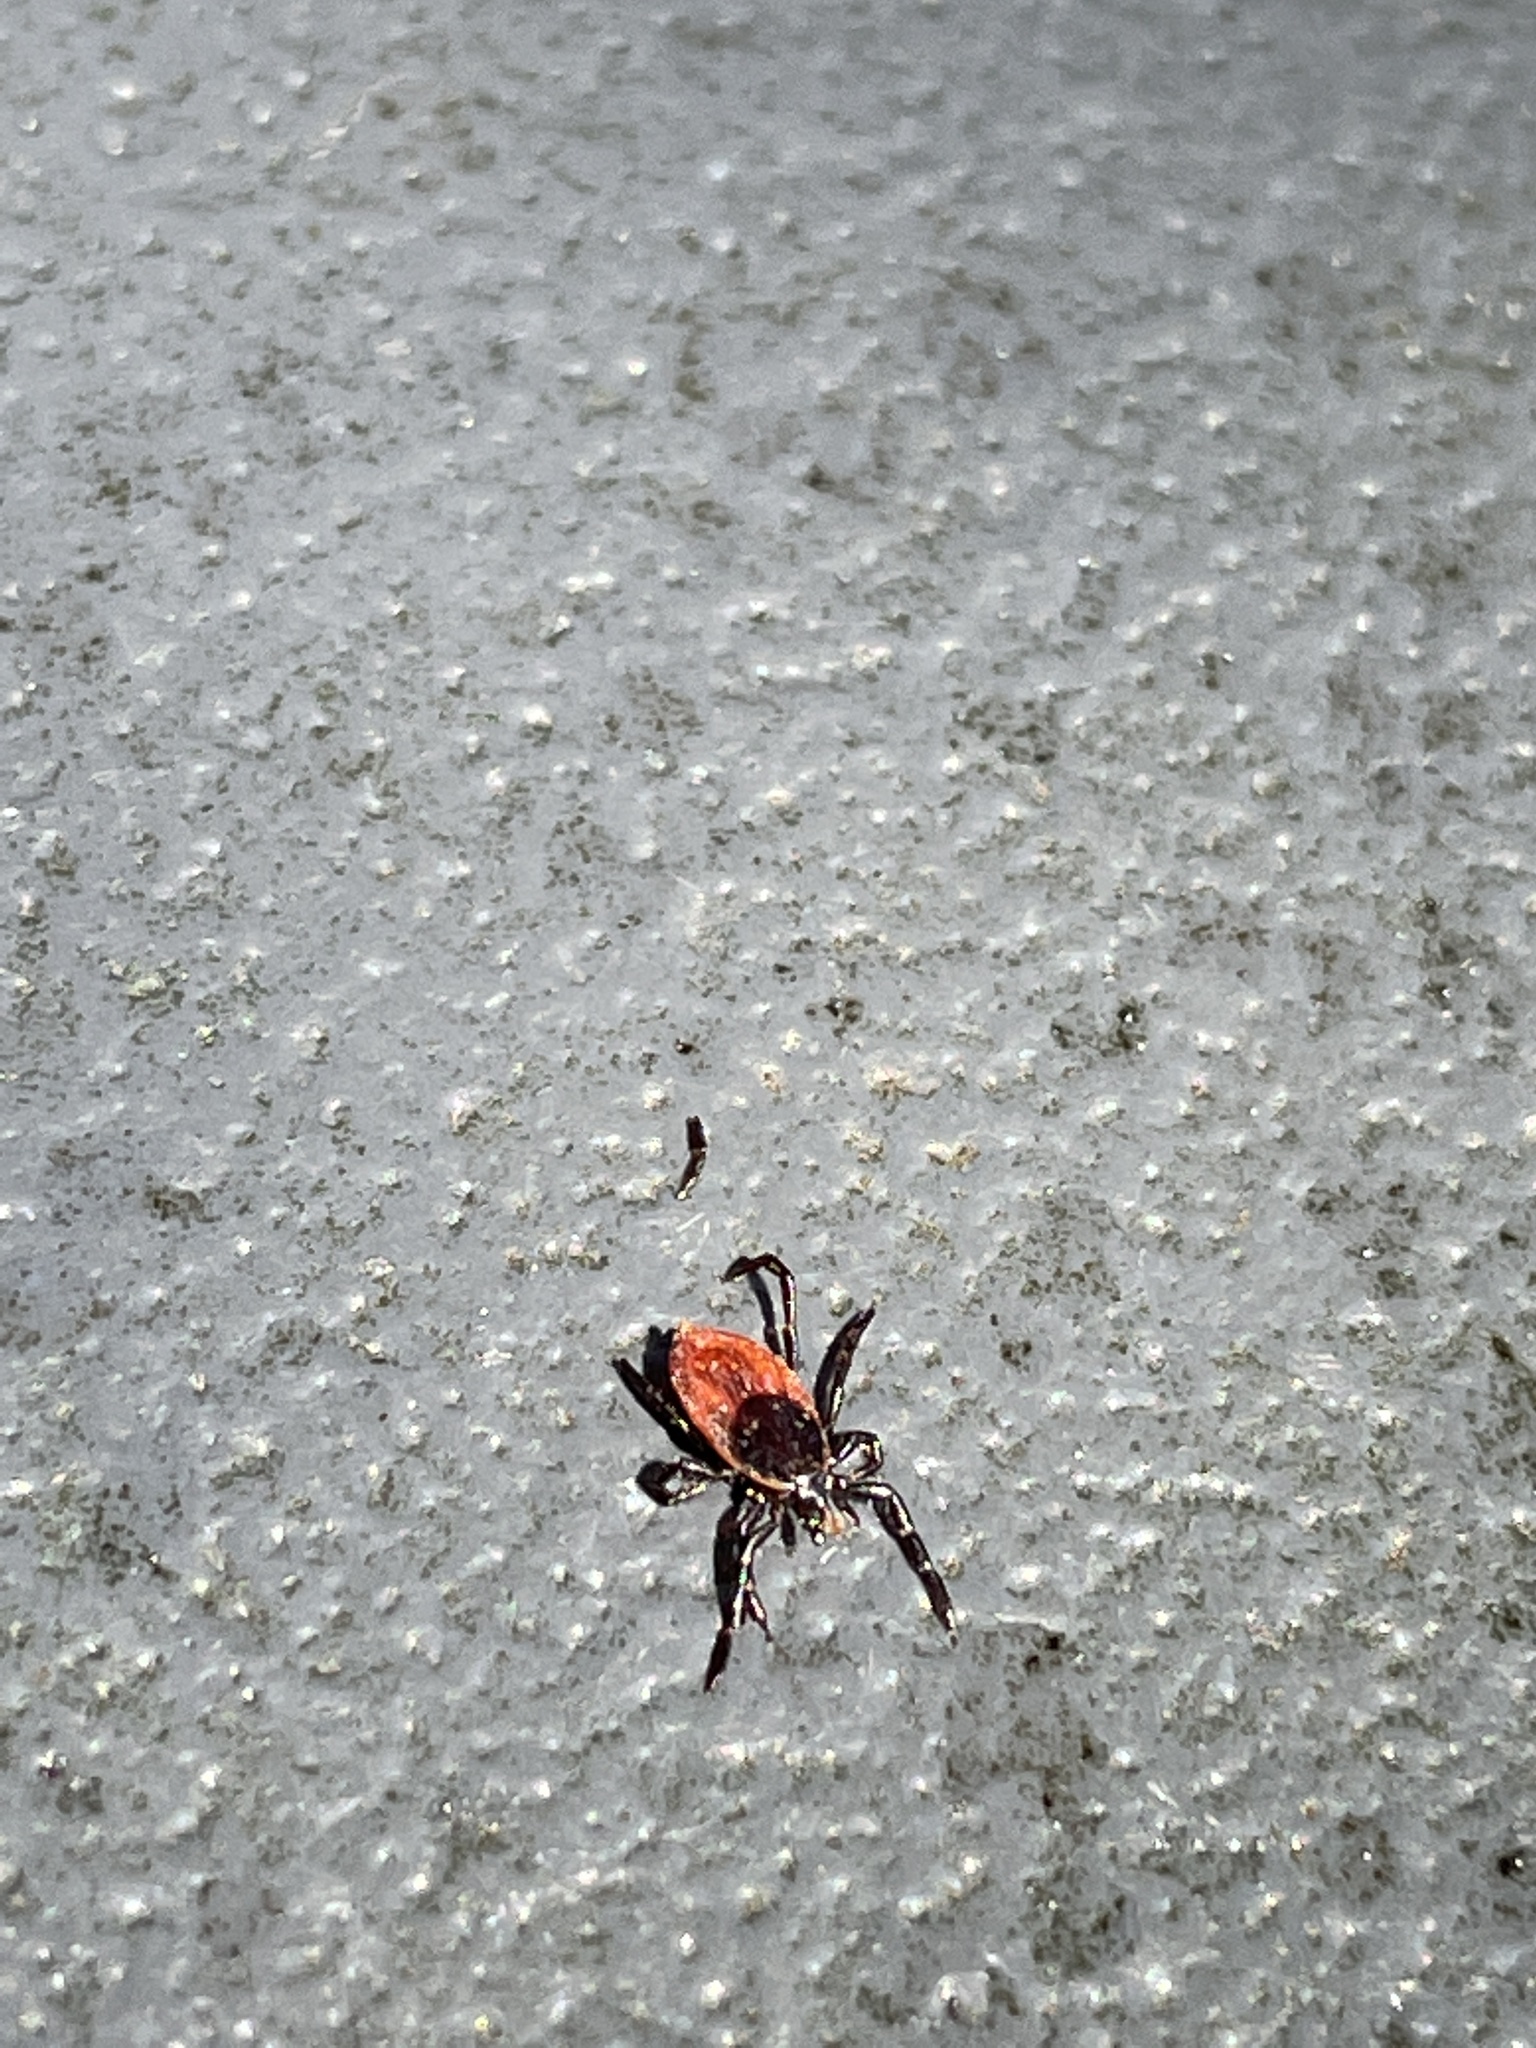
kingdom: Animalia
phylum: Arthropoda
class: Arachnida
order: Ixodida
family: Ixodidae
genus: Ixodes
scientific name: Ixodes pacificus
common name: California black-legged tick
